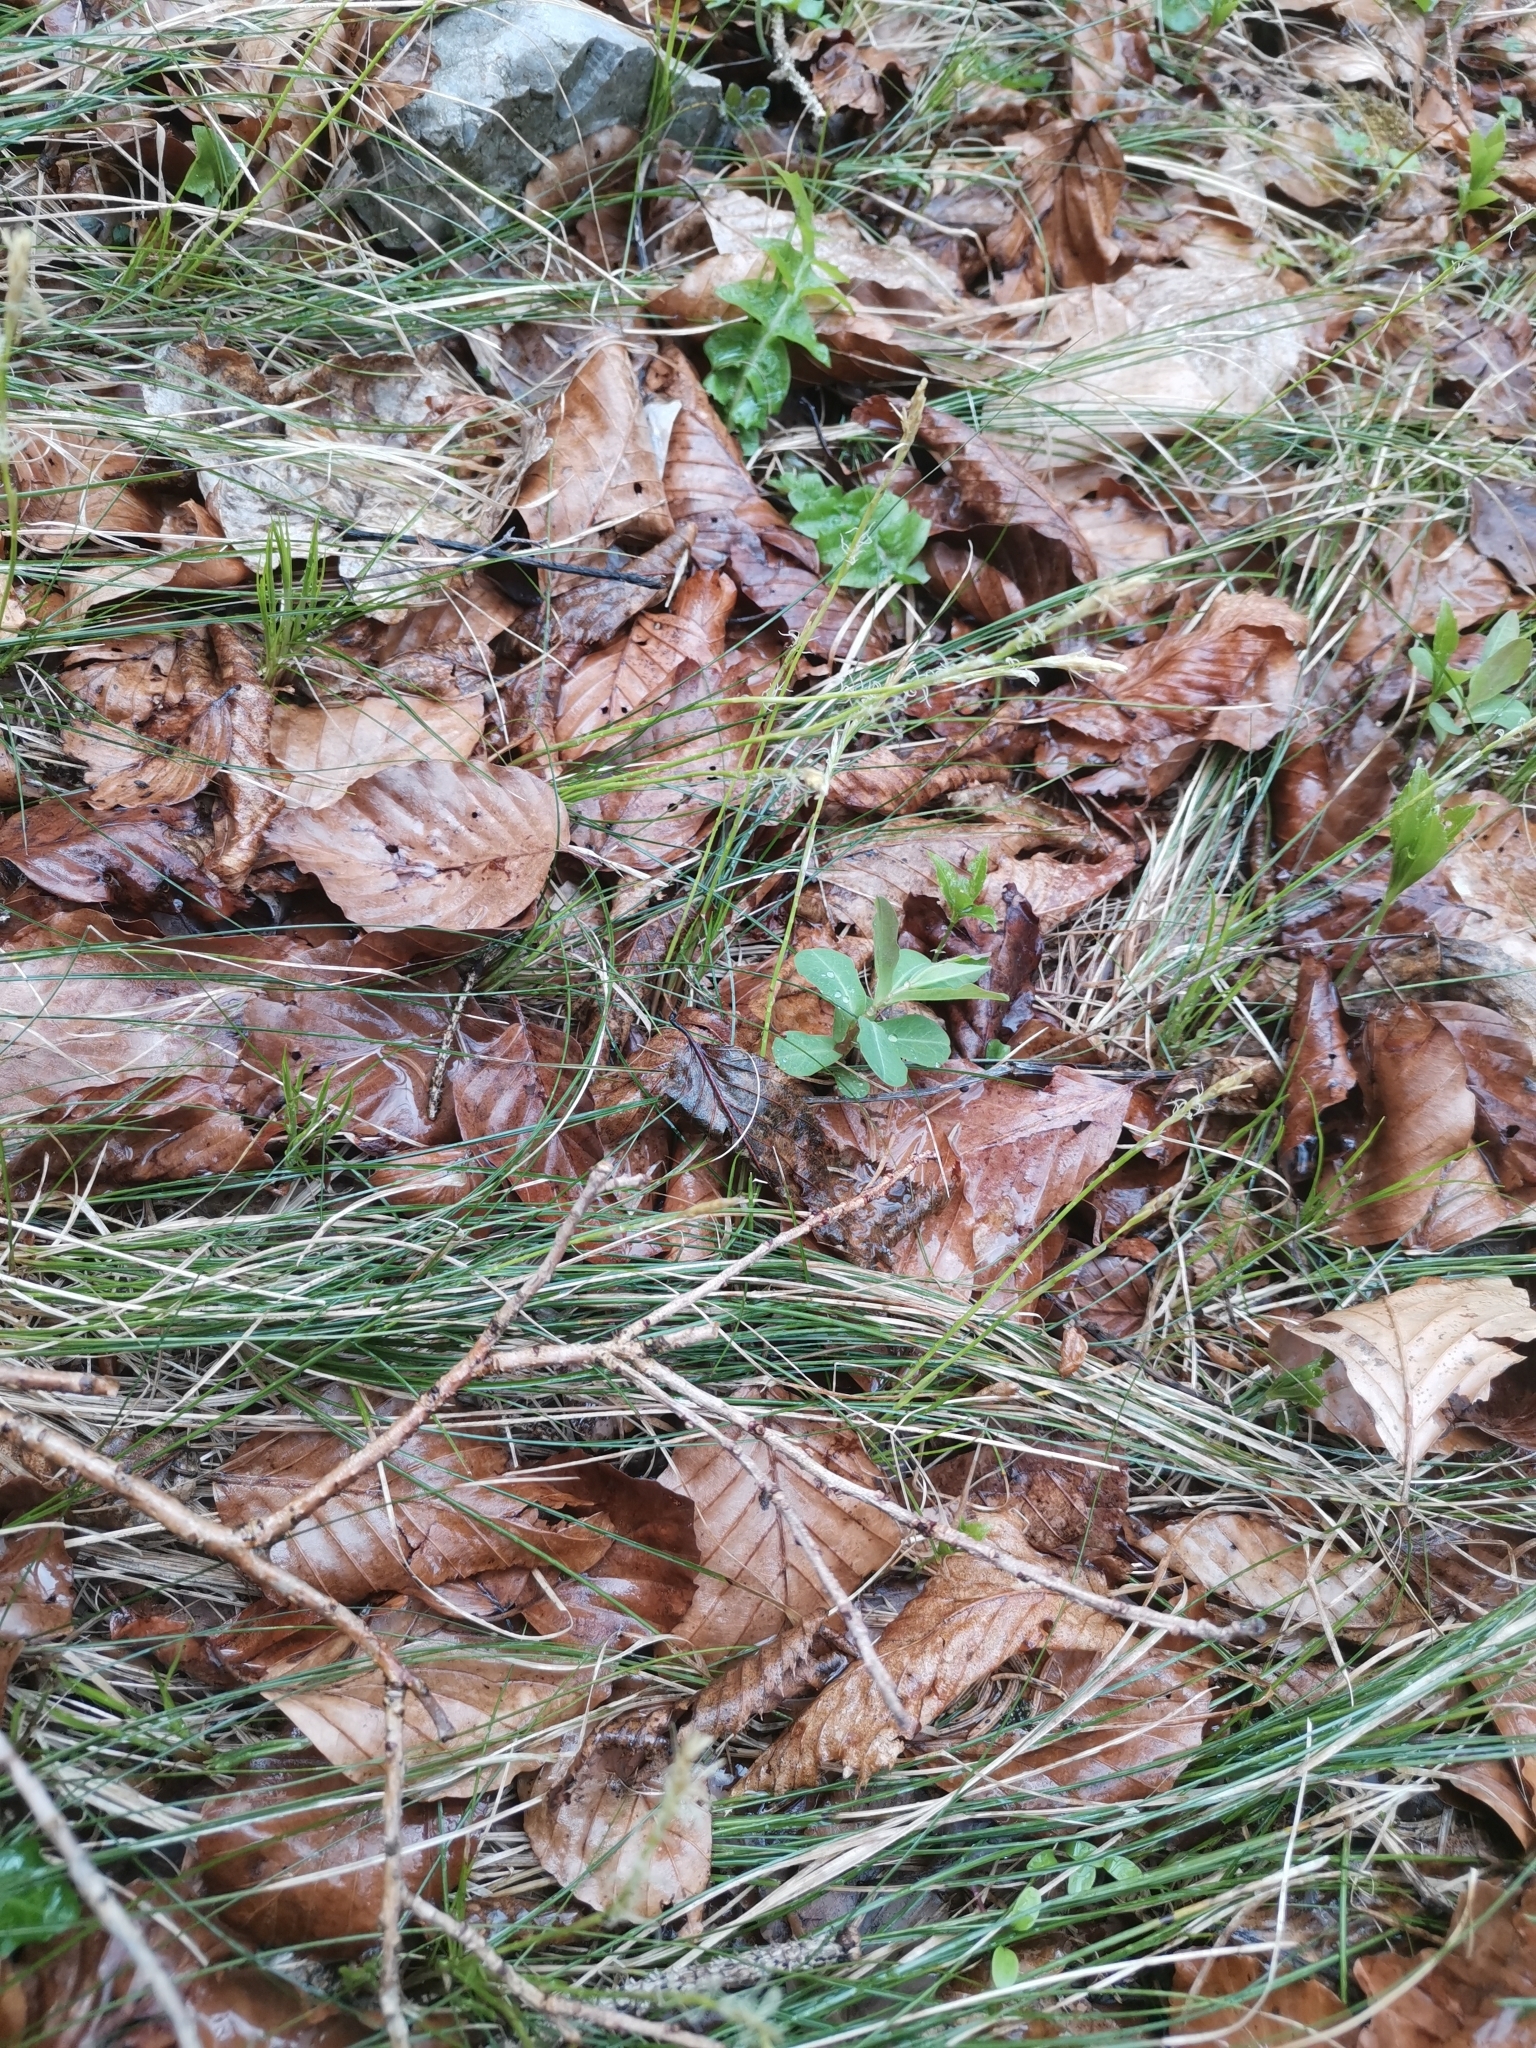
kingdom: Plantae
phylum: Tracheophyta
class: Liliopsida
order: Poales
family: Cyperaceae
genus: Carex
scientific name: Carex alba
